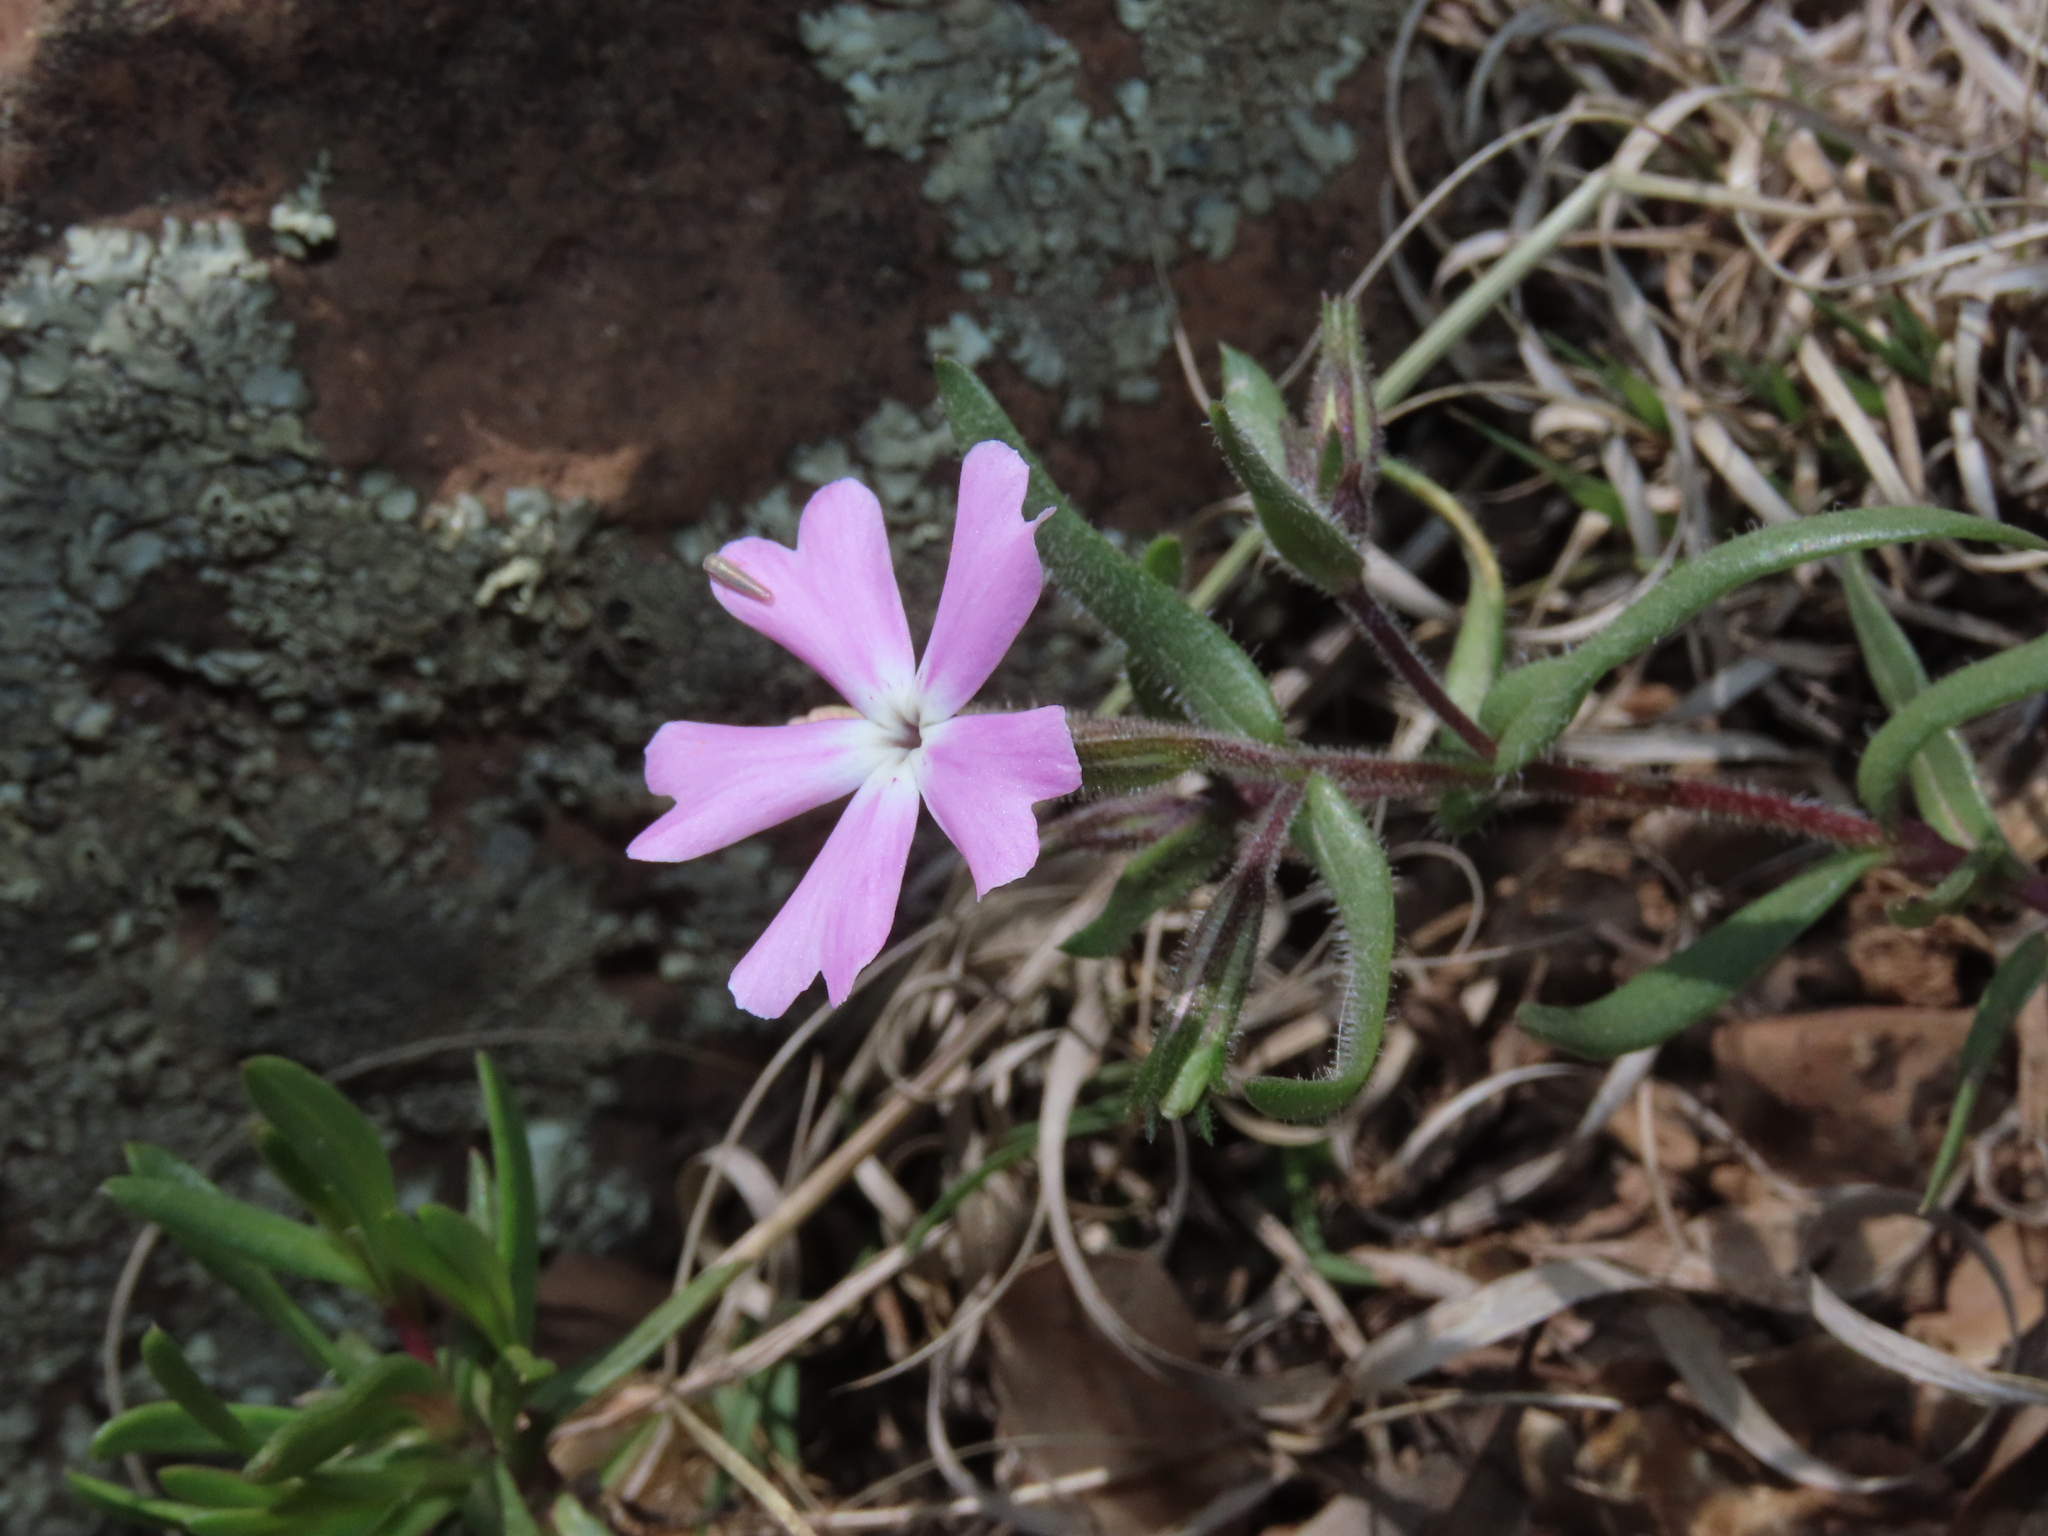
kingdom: Plantae
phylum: Tracheophyta
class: Magnoliopsida
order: Ericales
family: Polemoniaceae
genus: Phlox
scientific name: Phlox woodhousei
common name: Star phlox
